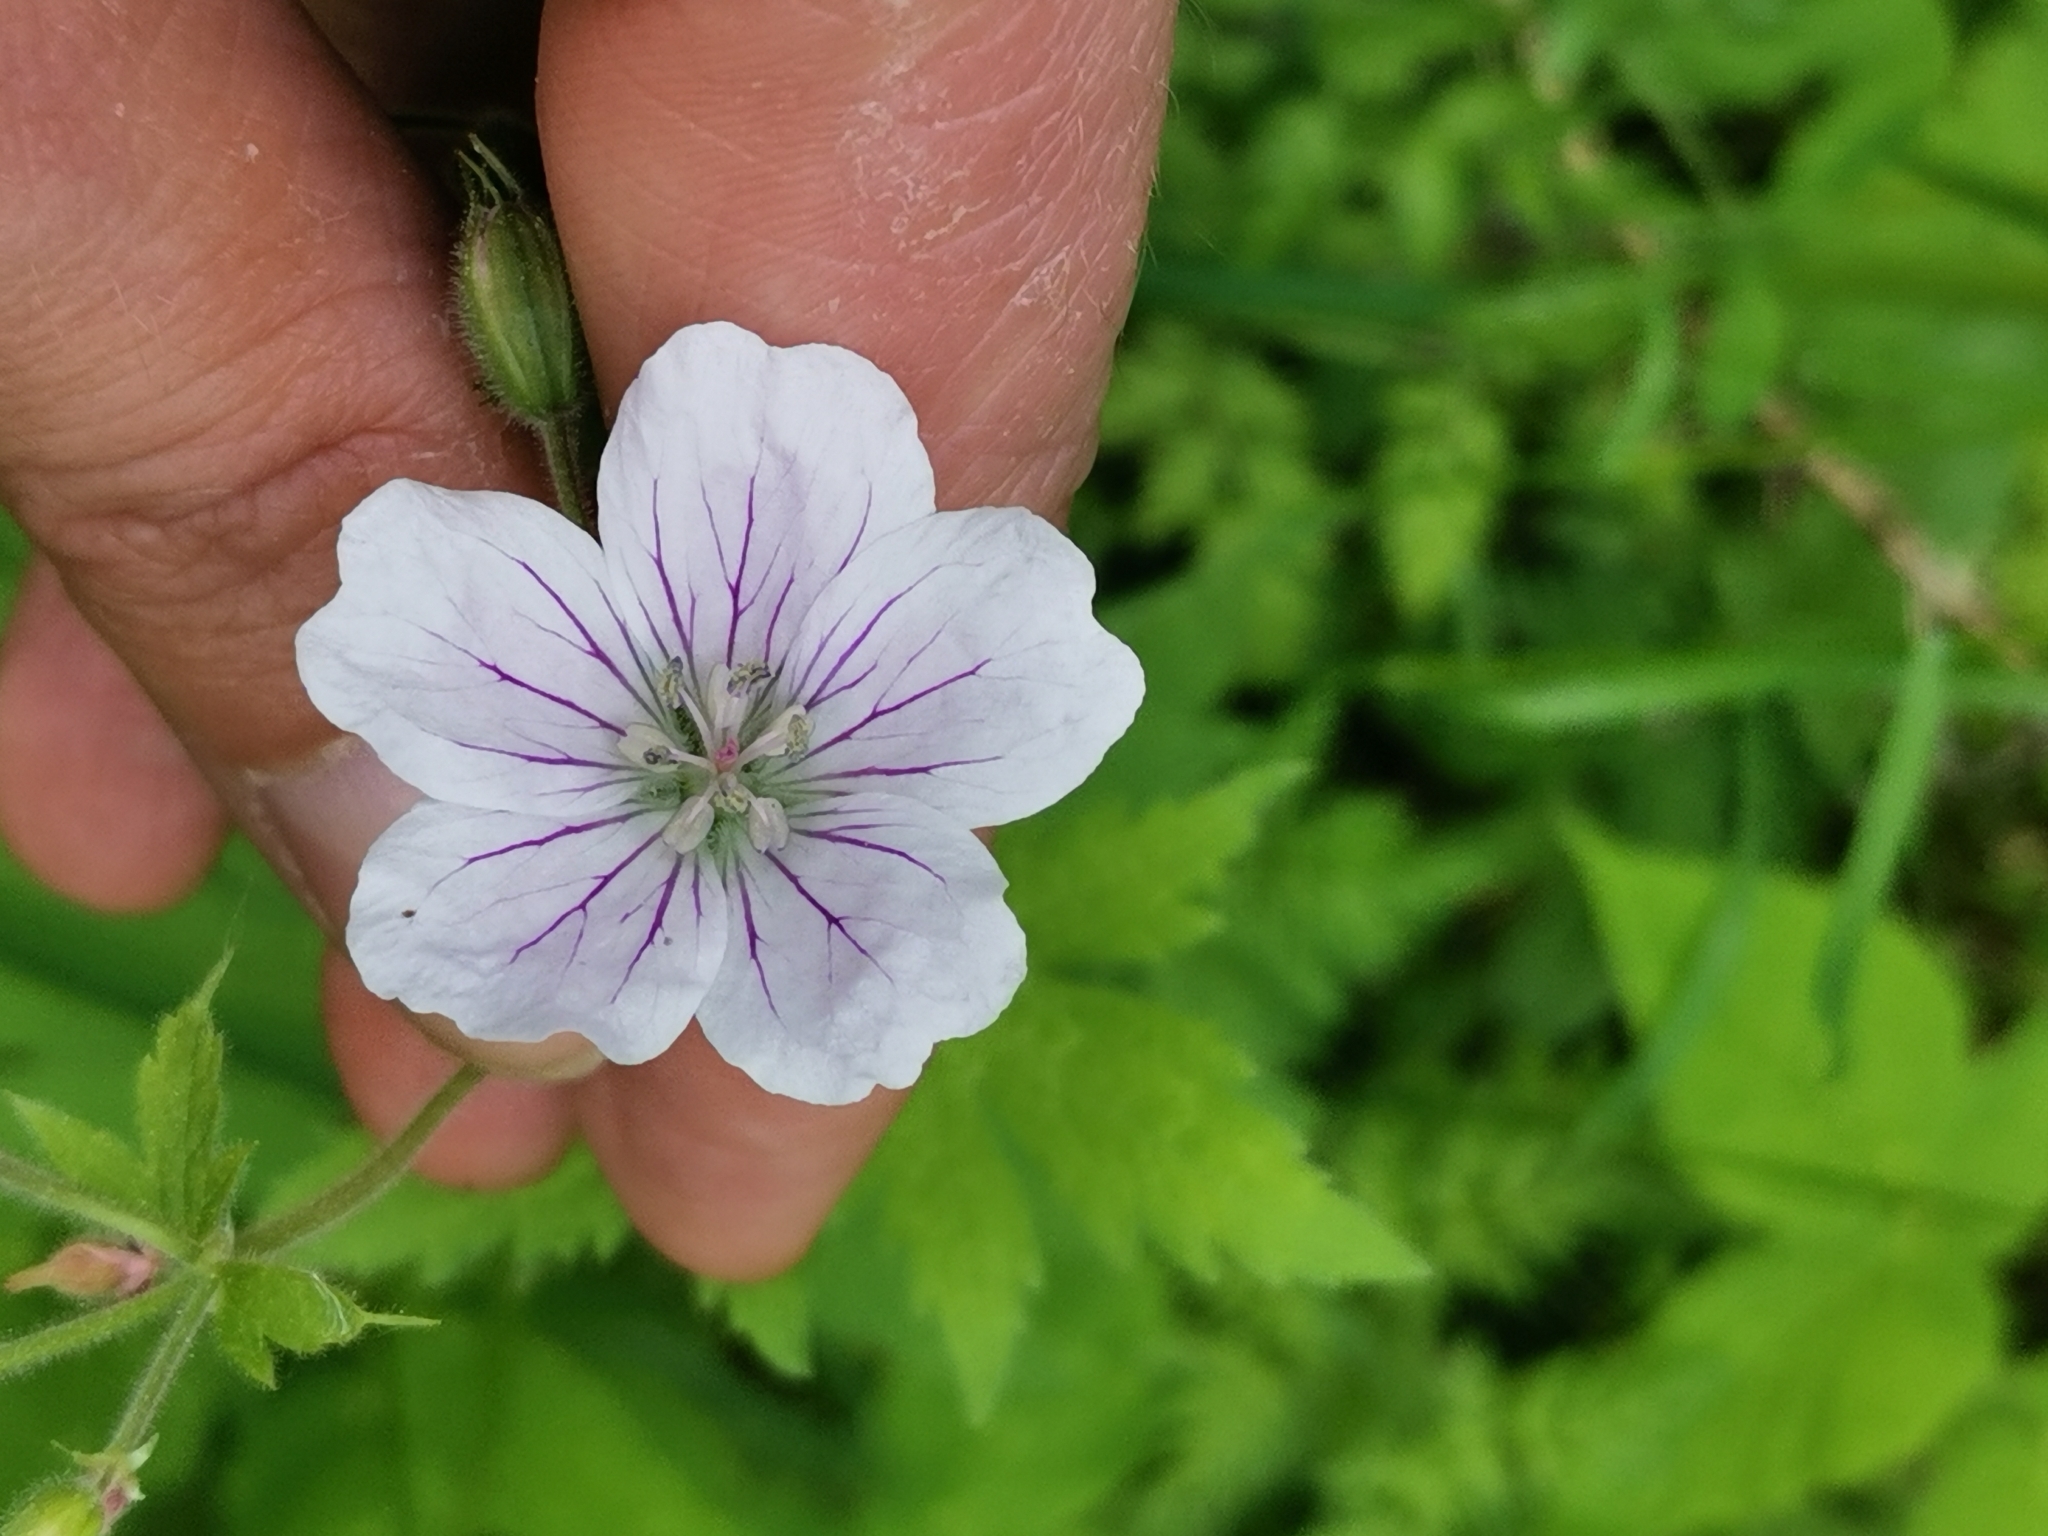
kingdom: Plantae
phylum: Tracheophyta
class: Magnoliopsida
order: Geraniales
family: Geraniaceae
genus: Geranium
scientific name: Geranium sylvaticum
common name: Wood crane's-bill
